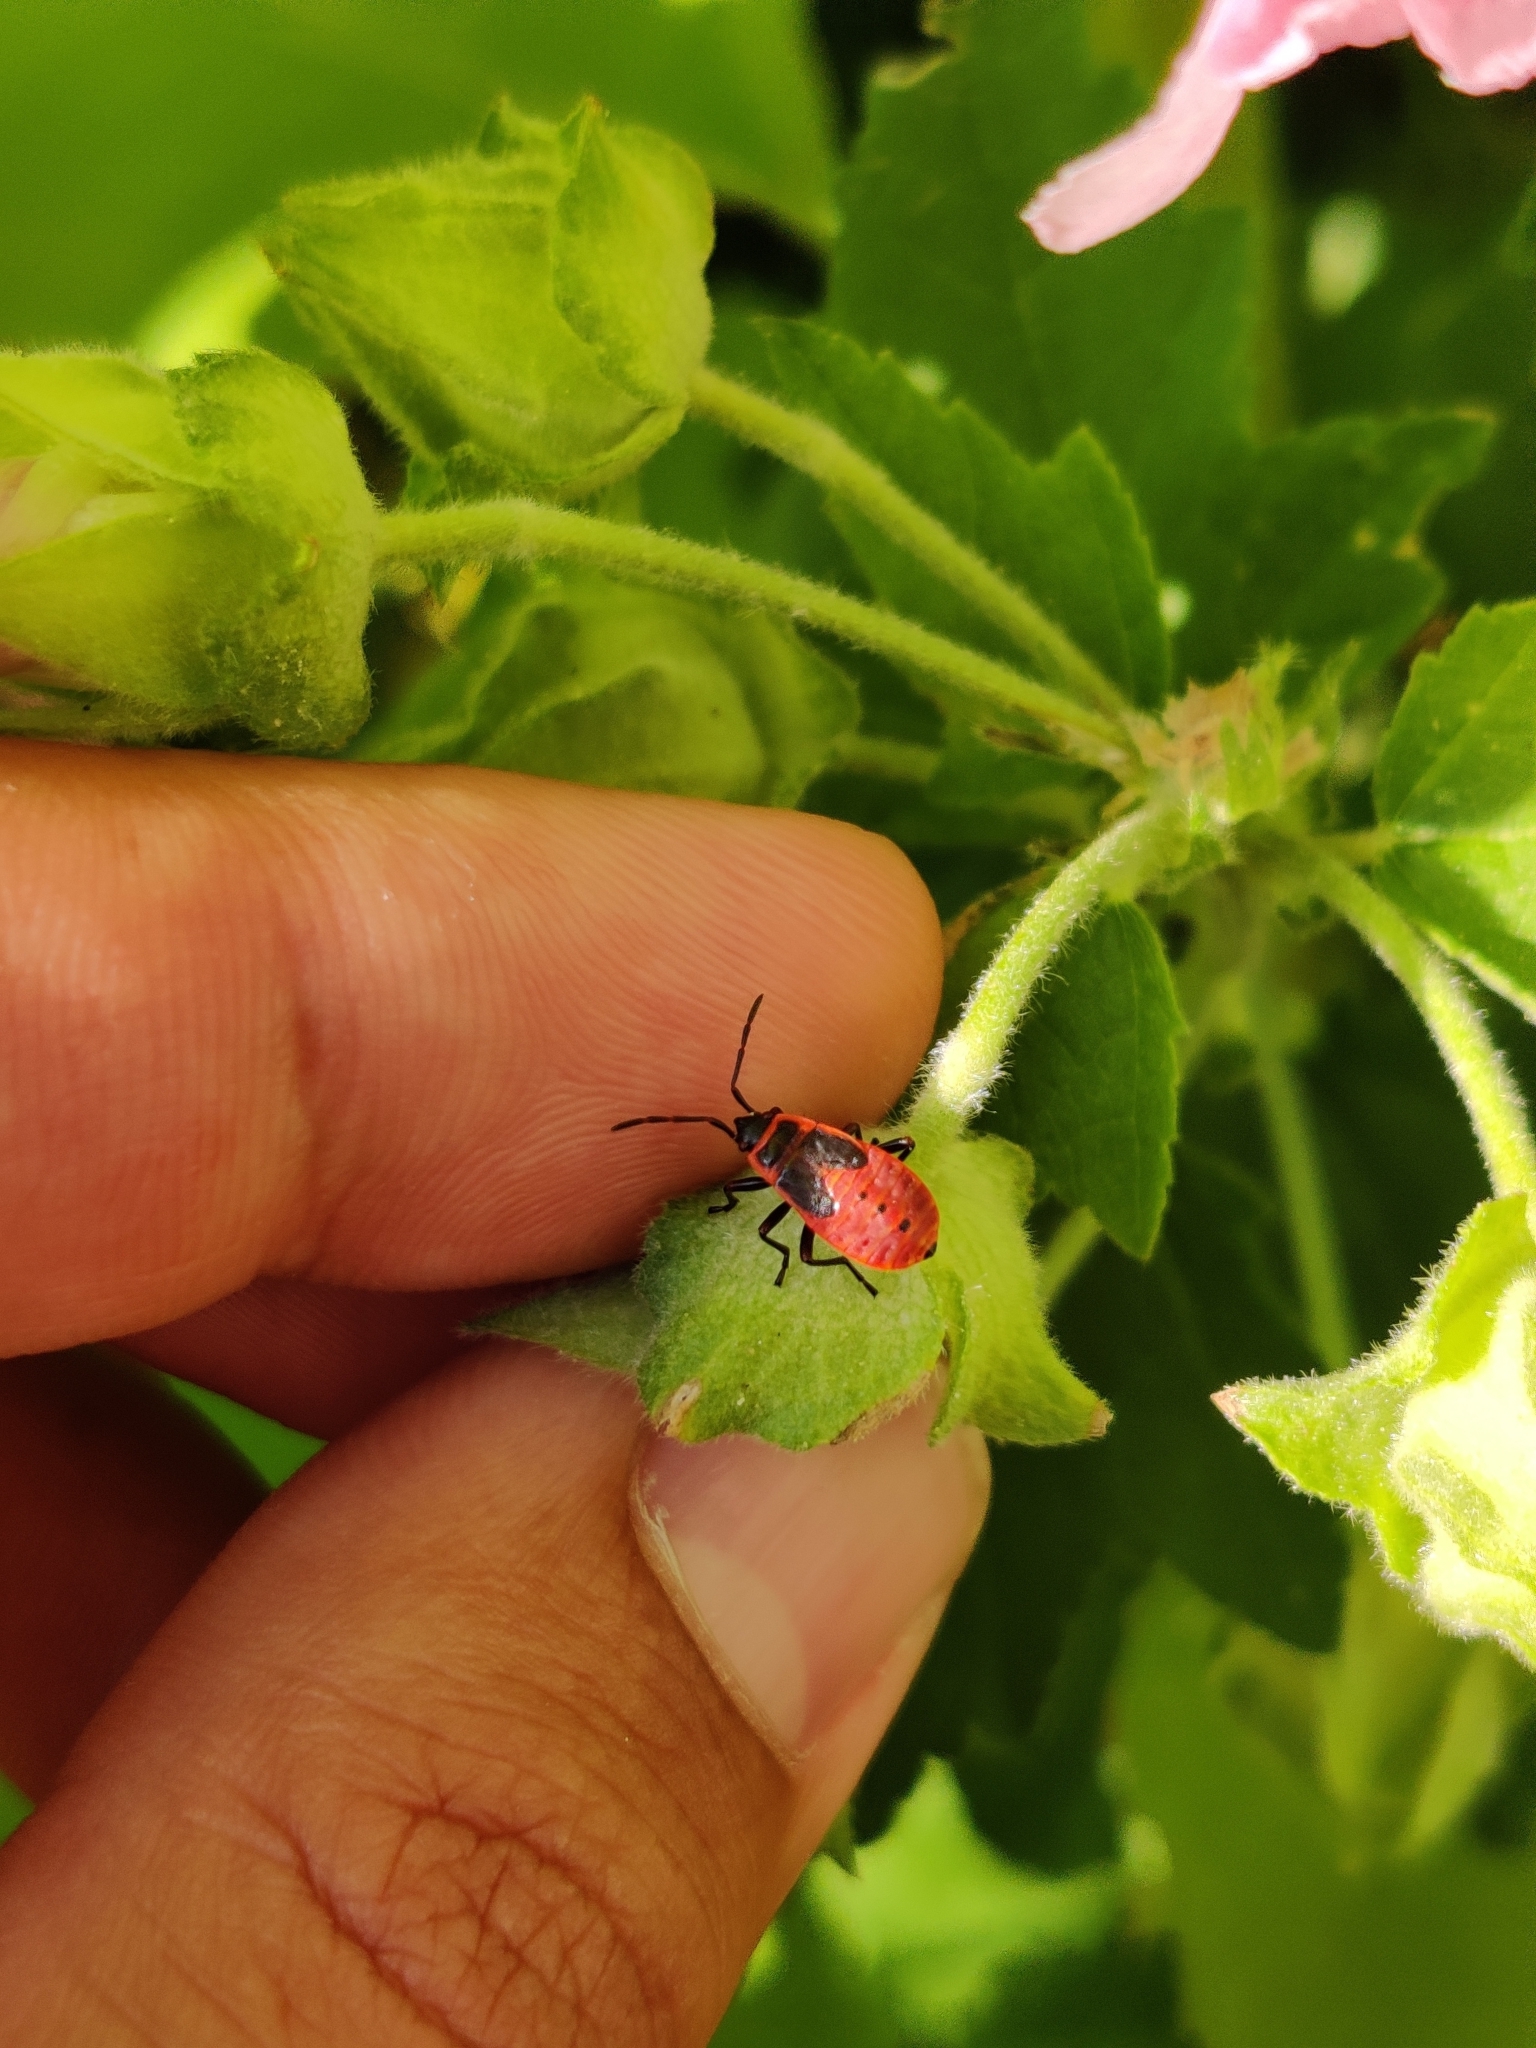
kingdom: Animalia
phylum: Arthropoda
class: Insecta
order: Hemiptera
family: Pyrrhocoridae
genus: Pyrrhocoris
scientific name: Pyrrhocoris apterus
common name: Firebug
